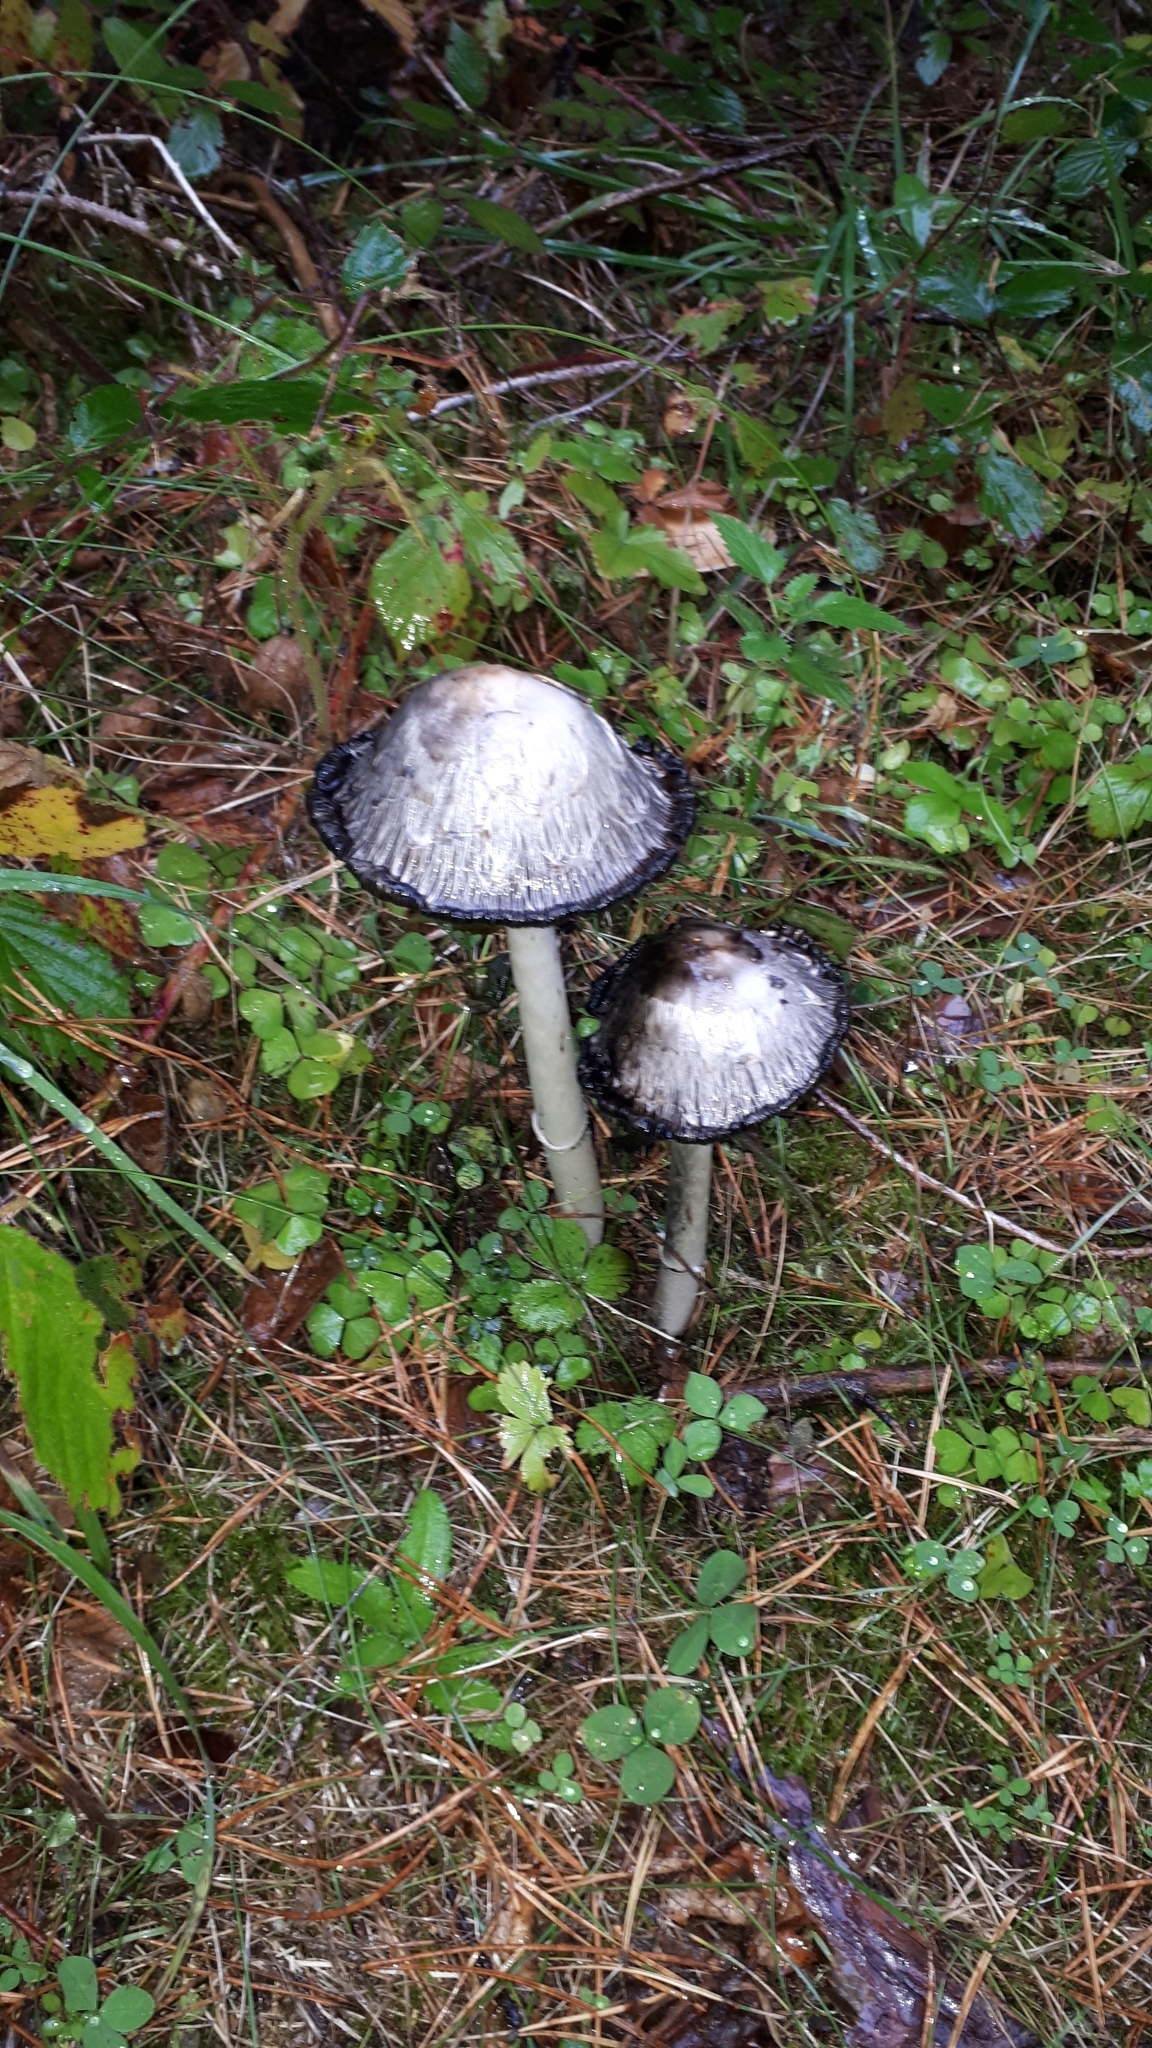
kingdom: Fungi
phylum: Basidiomycota
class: Agaricomycetes
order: Agaricales
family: Agaricaceae
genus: Coprinus
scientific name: Coprinus comatus
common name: Lawyer's wig
